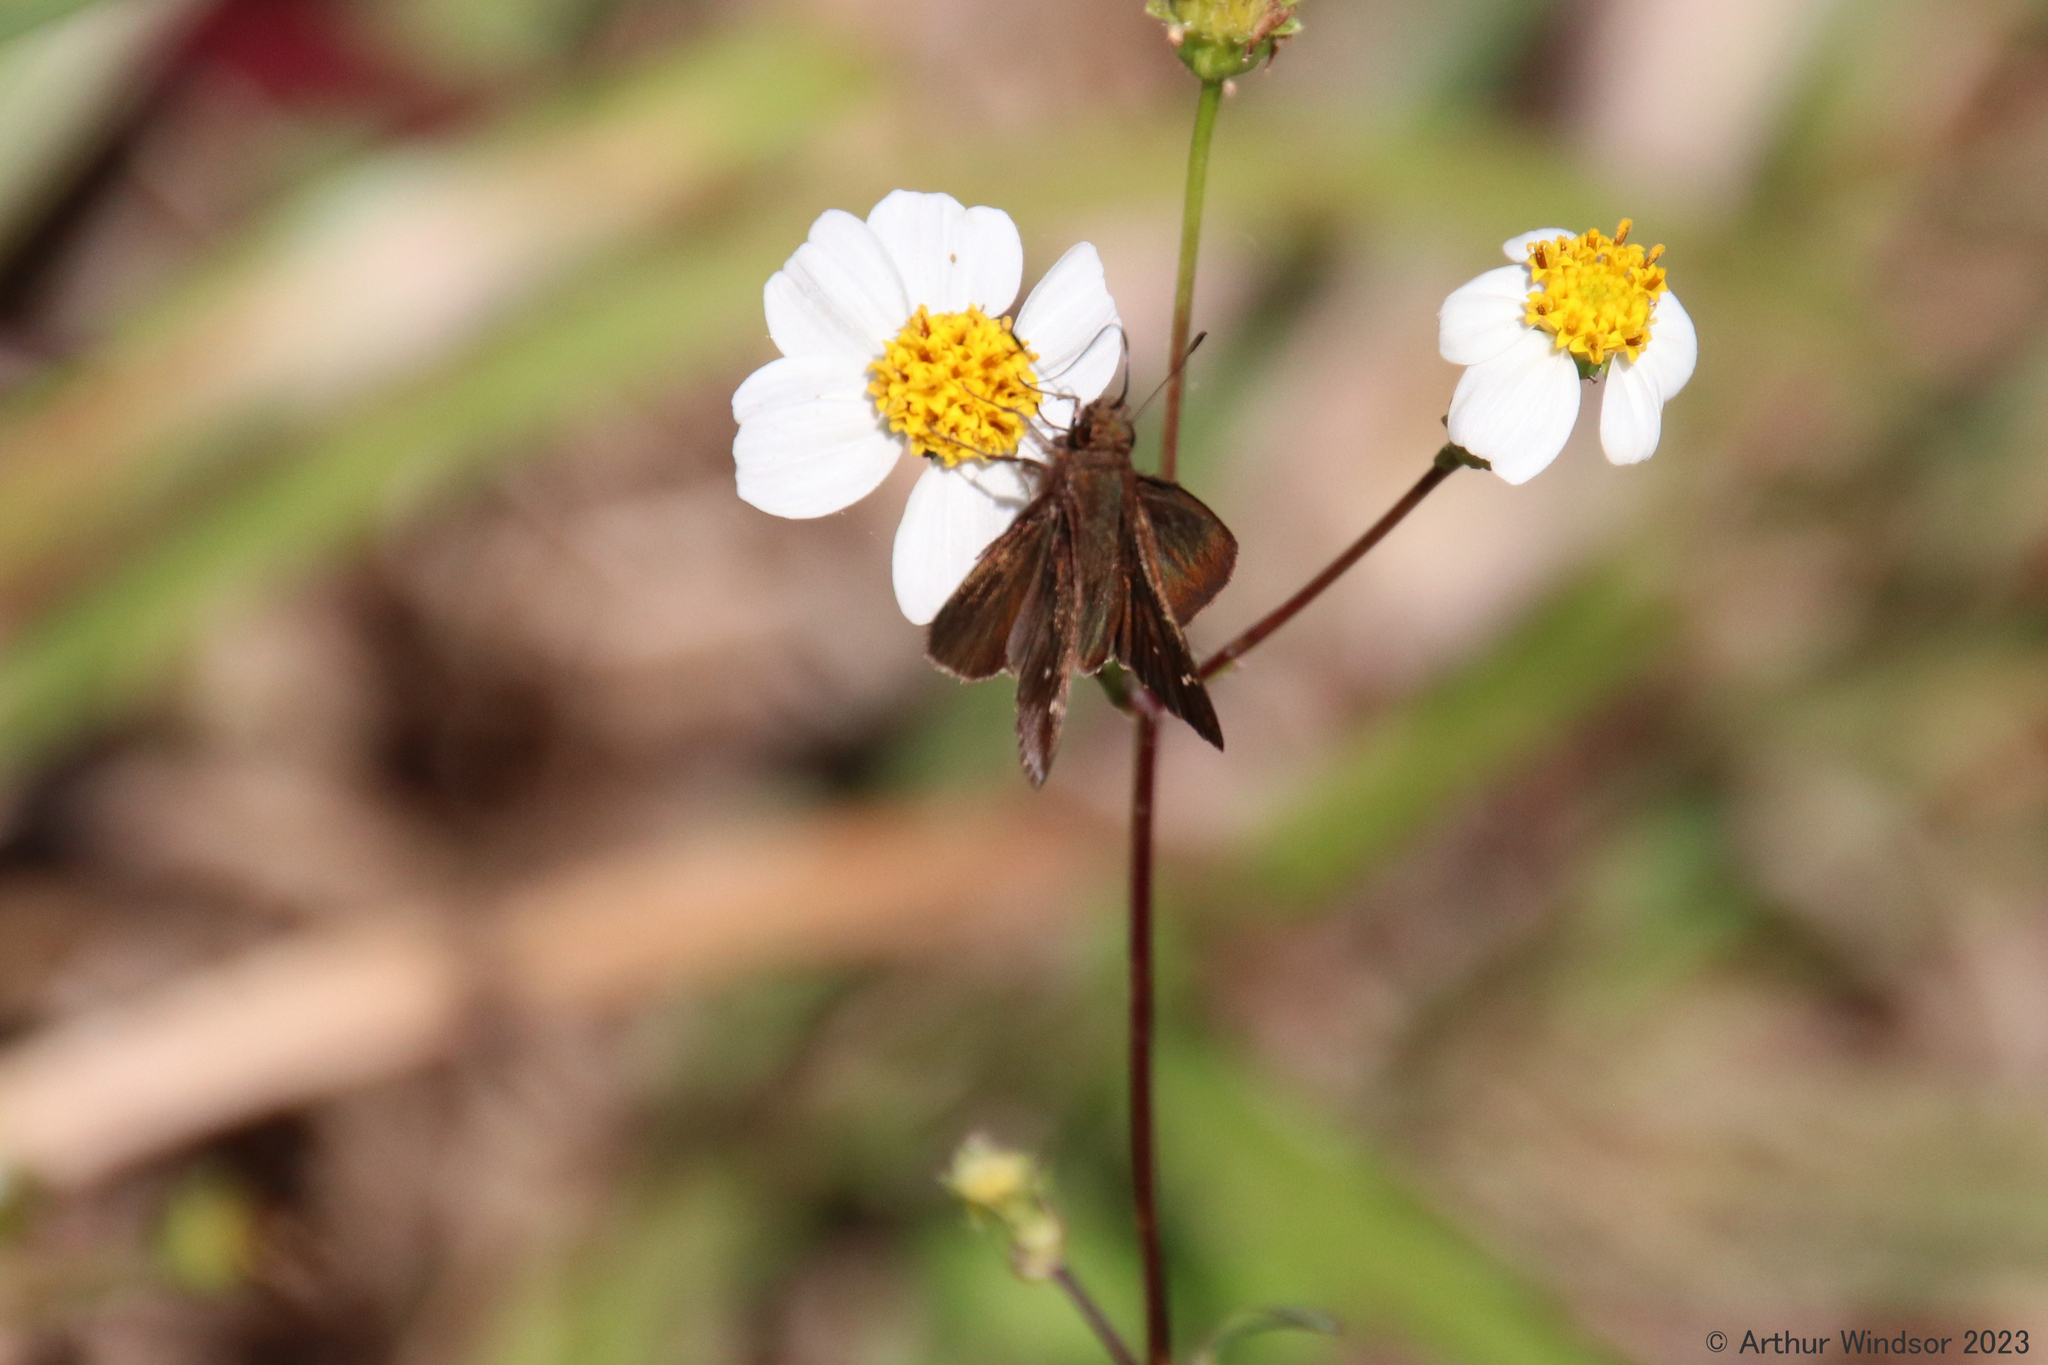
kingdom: Animalia
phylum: Arthropoda
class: Insecta
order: Lepidoptera
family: Hesperiidae
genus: Lerema
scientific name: Lerema accius
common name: Clouded skipper
